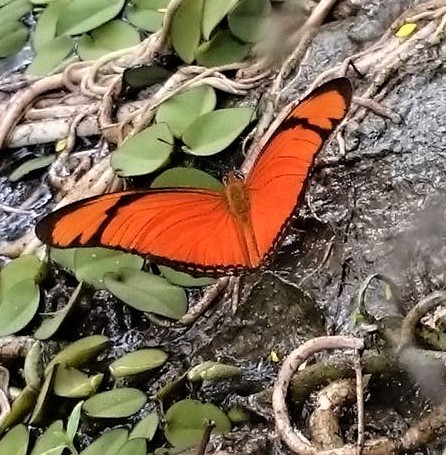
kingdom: Animalia
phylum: Arthropoda
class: Insecta
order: Lepidoptera
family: Nymphalidae
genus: Dryas
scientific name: Dryas iulia
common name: Flambeau
